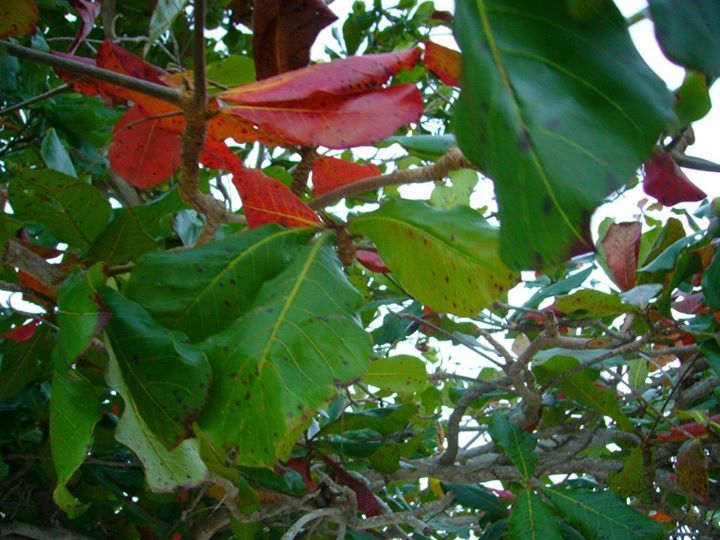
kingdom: Plantae
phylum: Tracheophyta
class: Magnoliopsida
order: Myrtales
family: Combretaceae
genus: Terminalia
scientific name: Terminalia catappa
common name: Tropical almond
